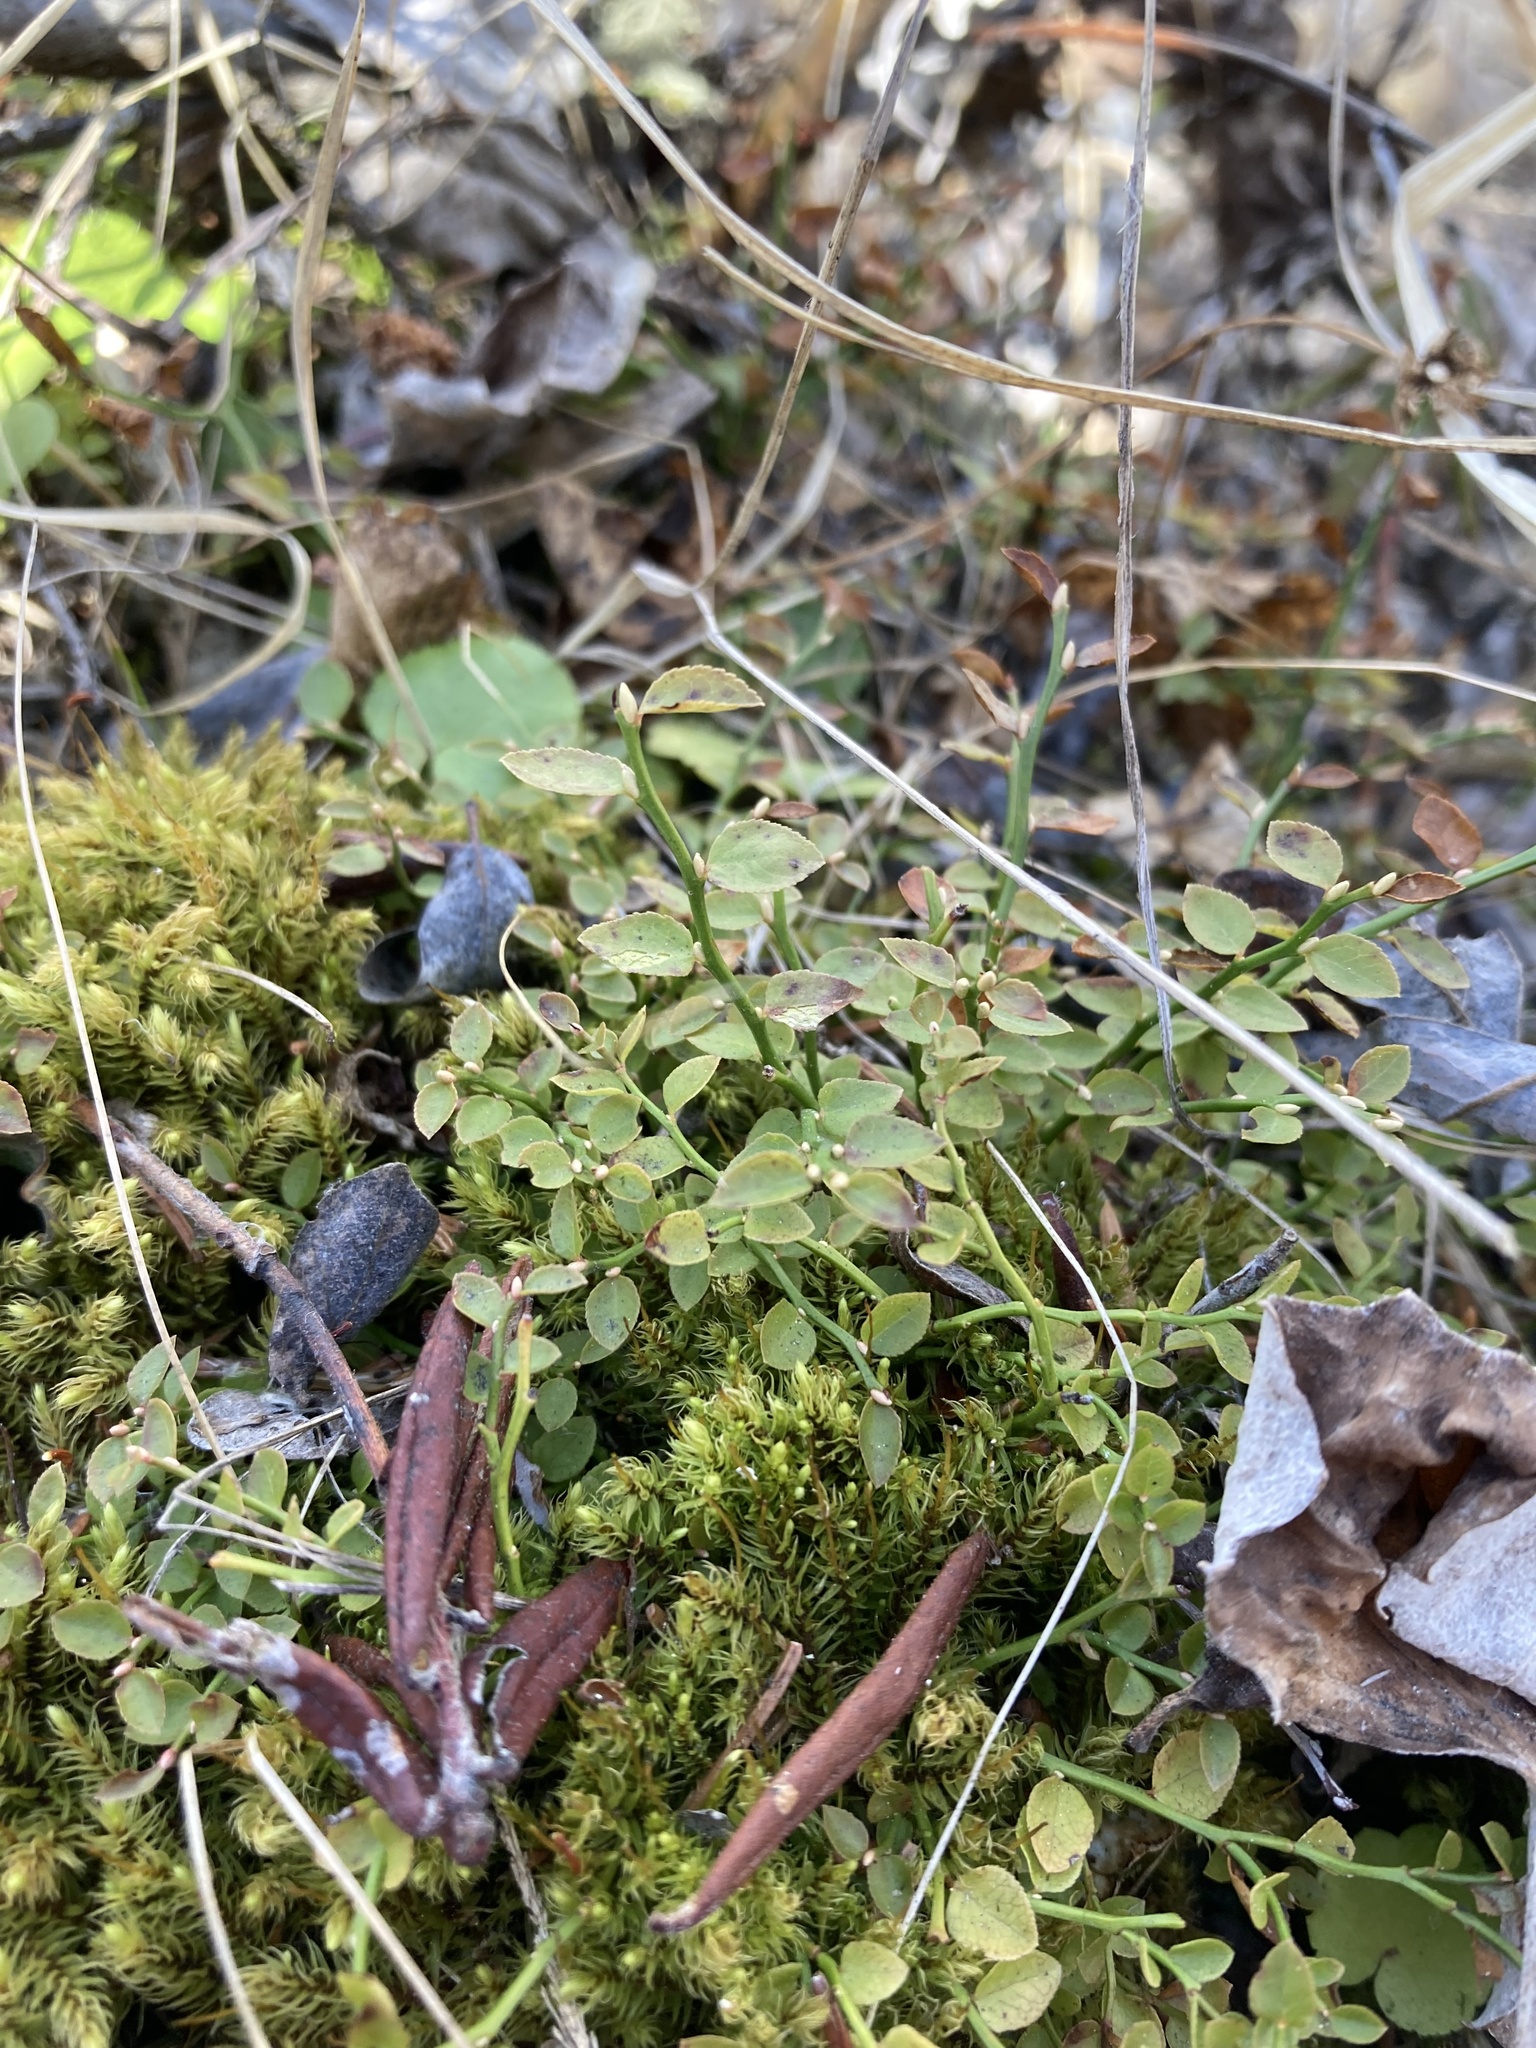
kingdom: Plantae
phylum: Tracheophyta
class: Magnoliopsida
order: Ericales
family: Ericaceae
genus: Vaccinium
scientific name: Vaccinium scoparium
